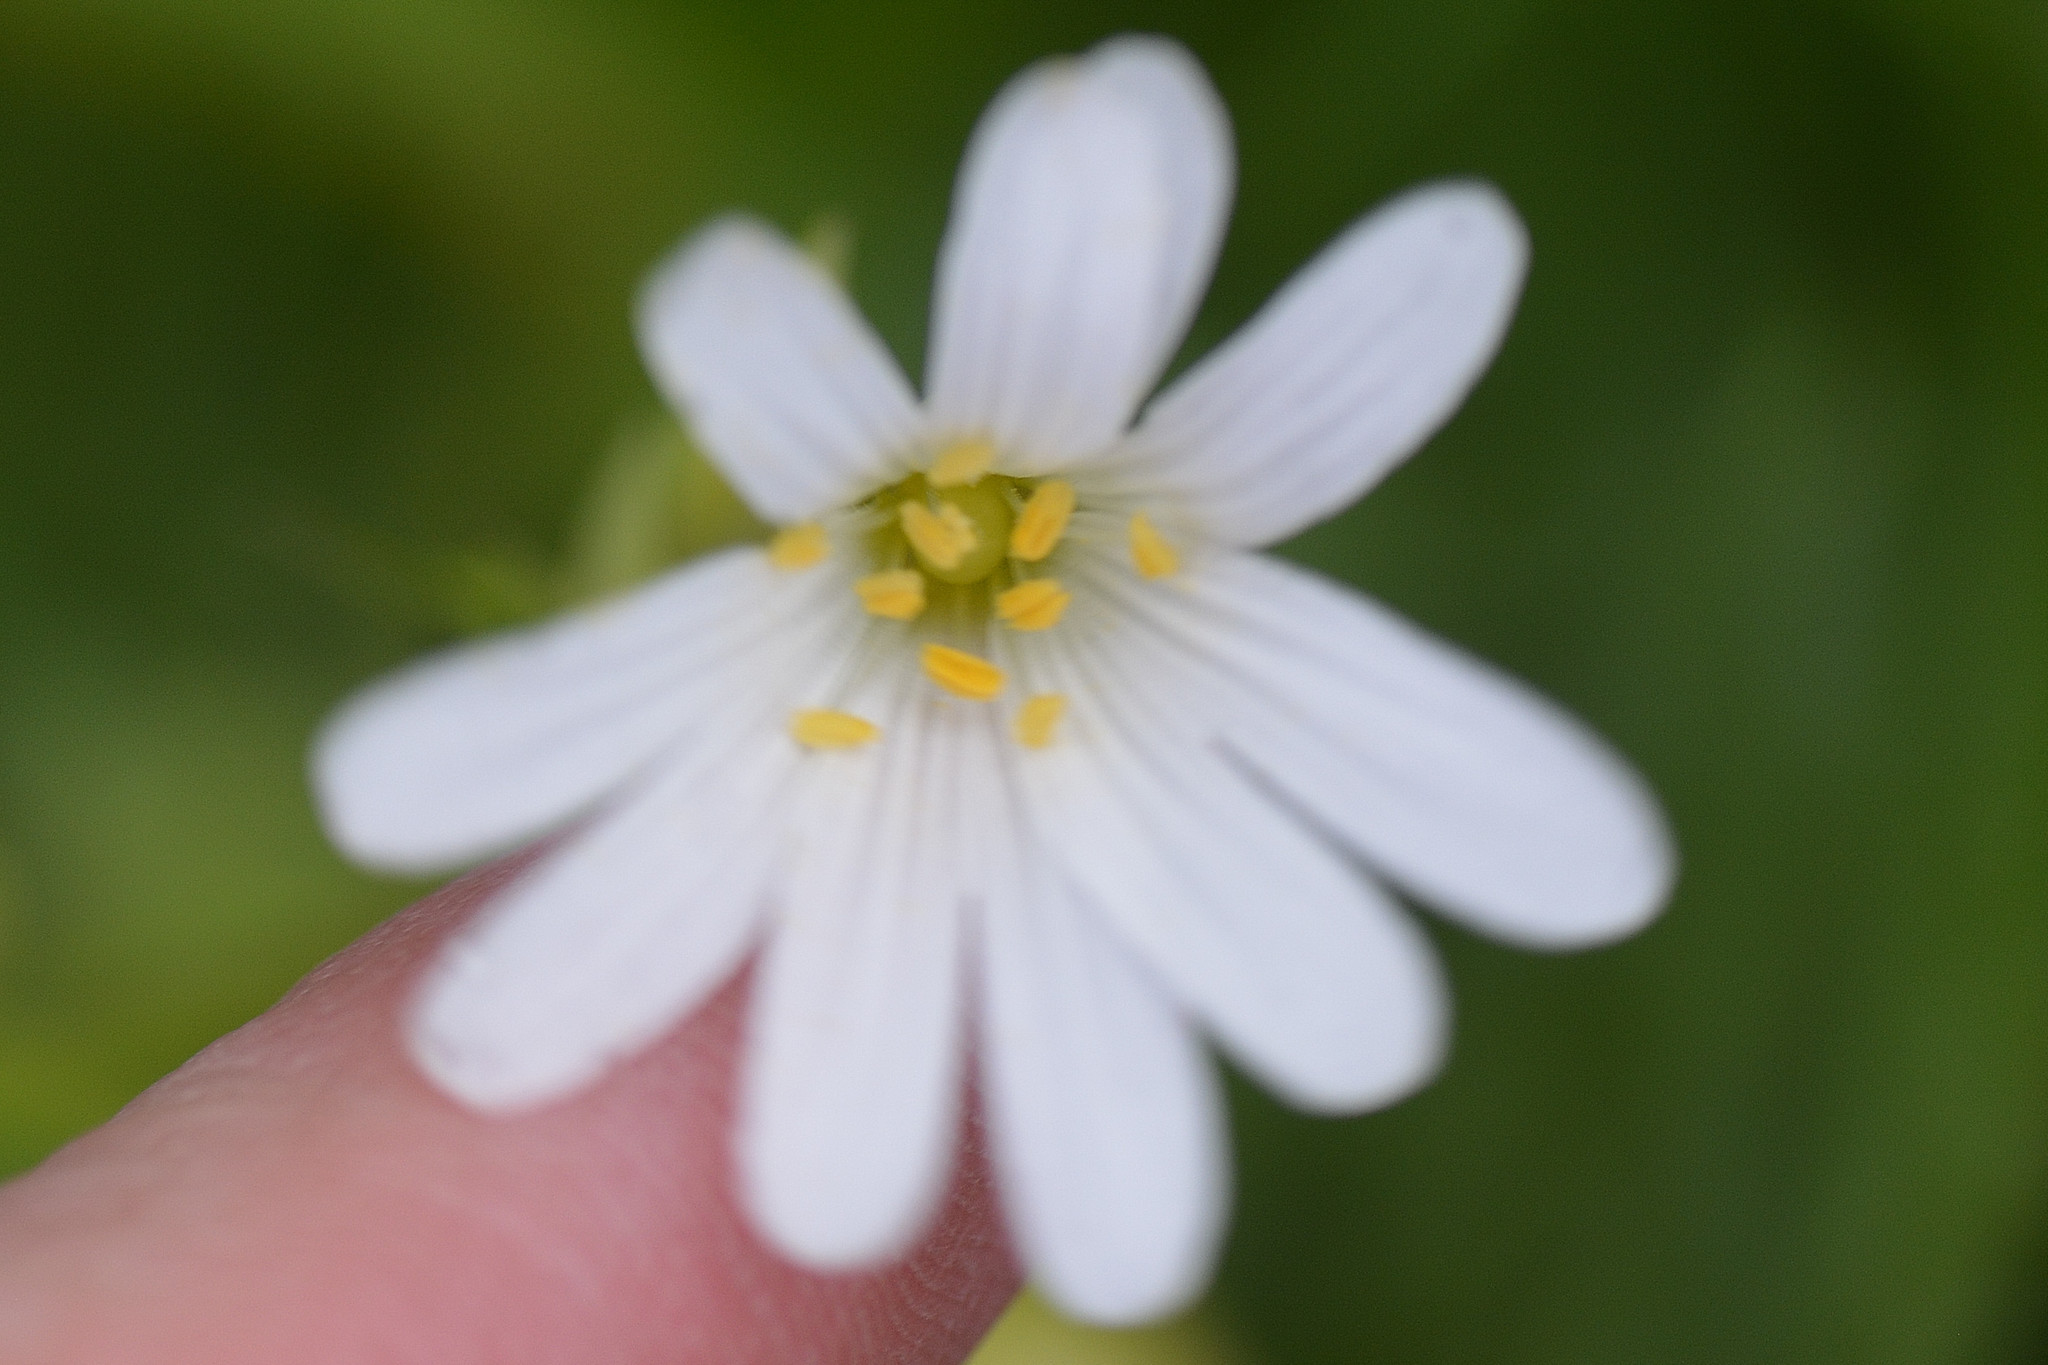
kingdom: Plantae
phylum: Tracheophyta
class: Magnoliopsida
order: Caryophyllales
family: Caryophyllaceae
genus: Rabelera
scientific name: Rabelera holostea
